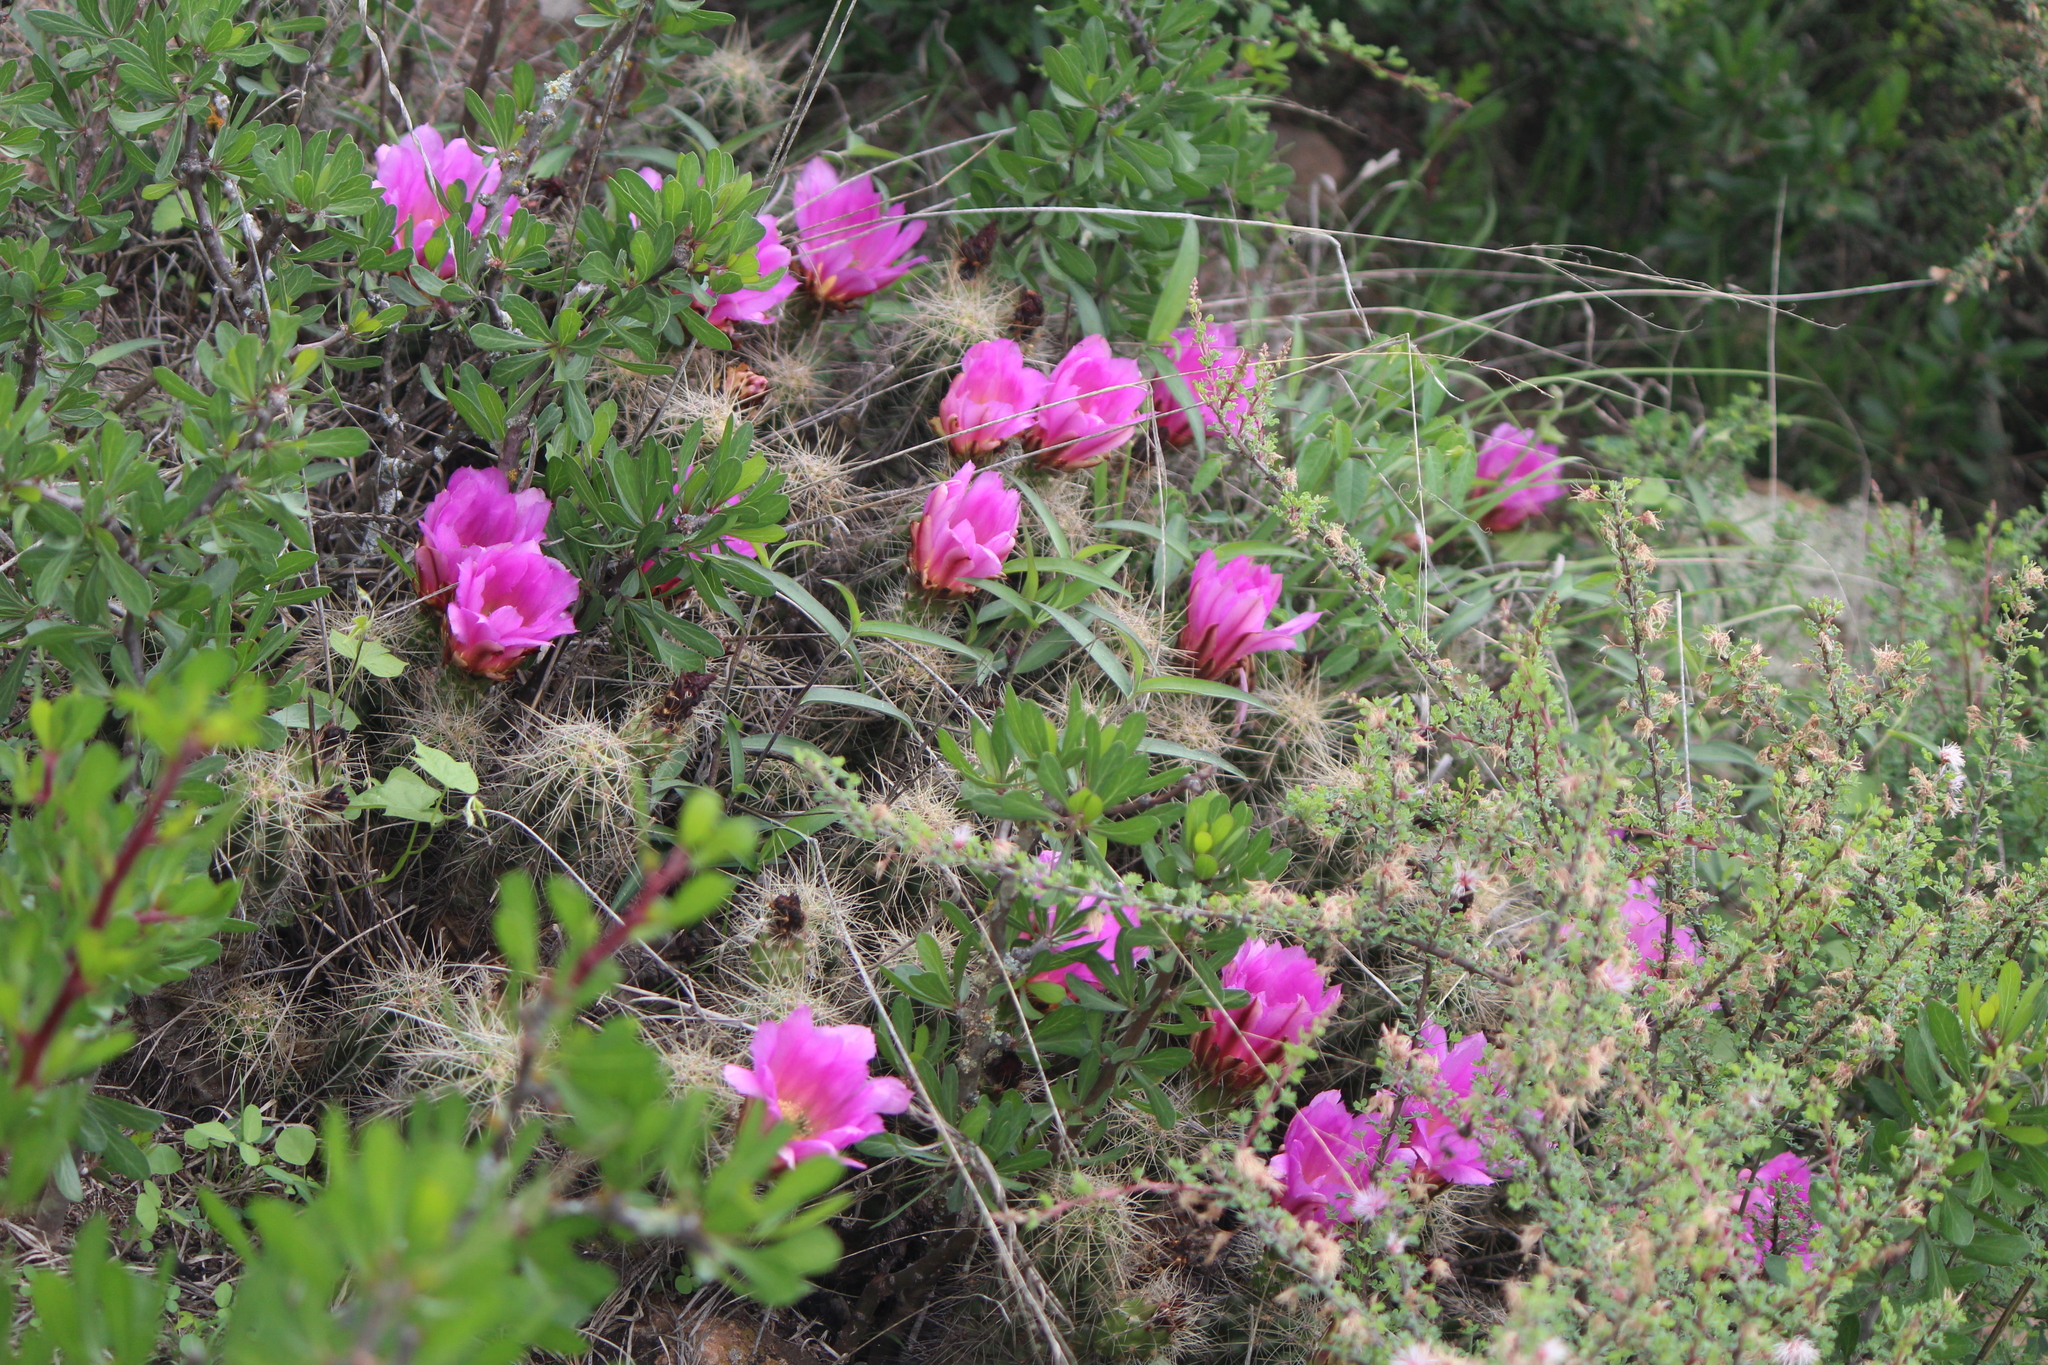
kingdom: Plantae
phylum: Tracheophyta
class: Magnoliopsida
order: Caryophyllales
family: Cactaceae
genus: Echinocereus
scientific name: Echinocereus cinerascens
